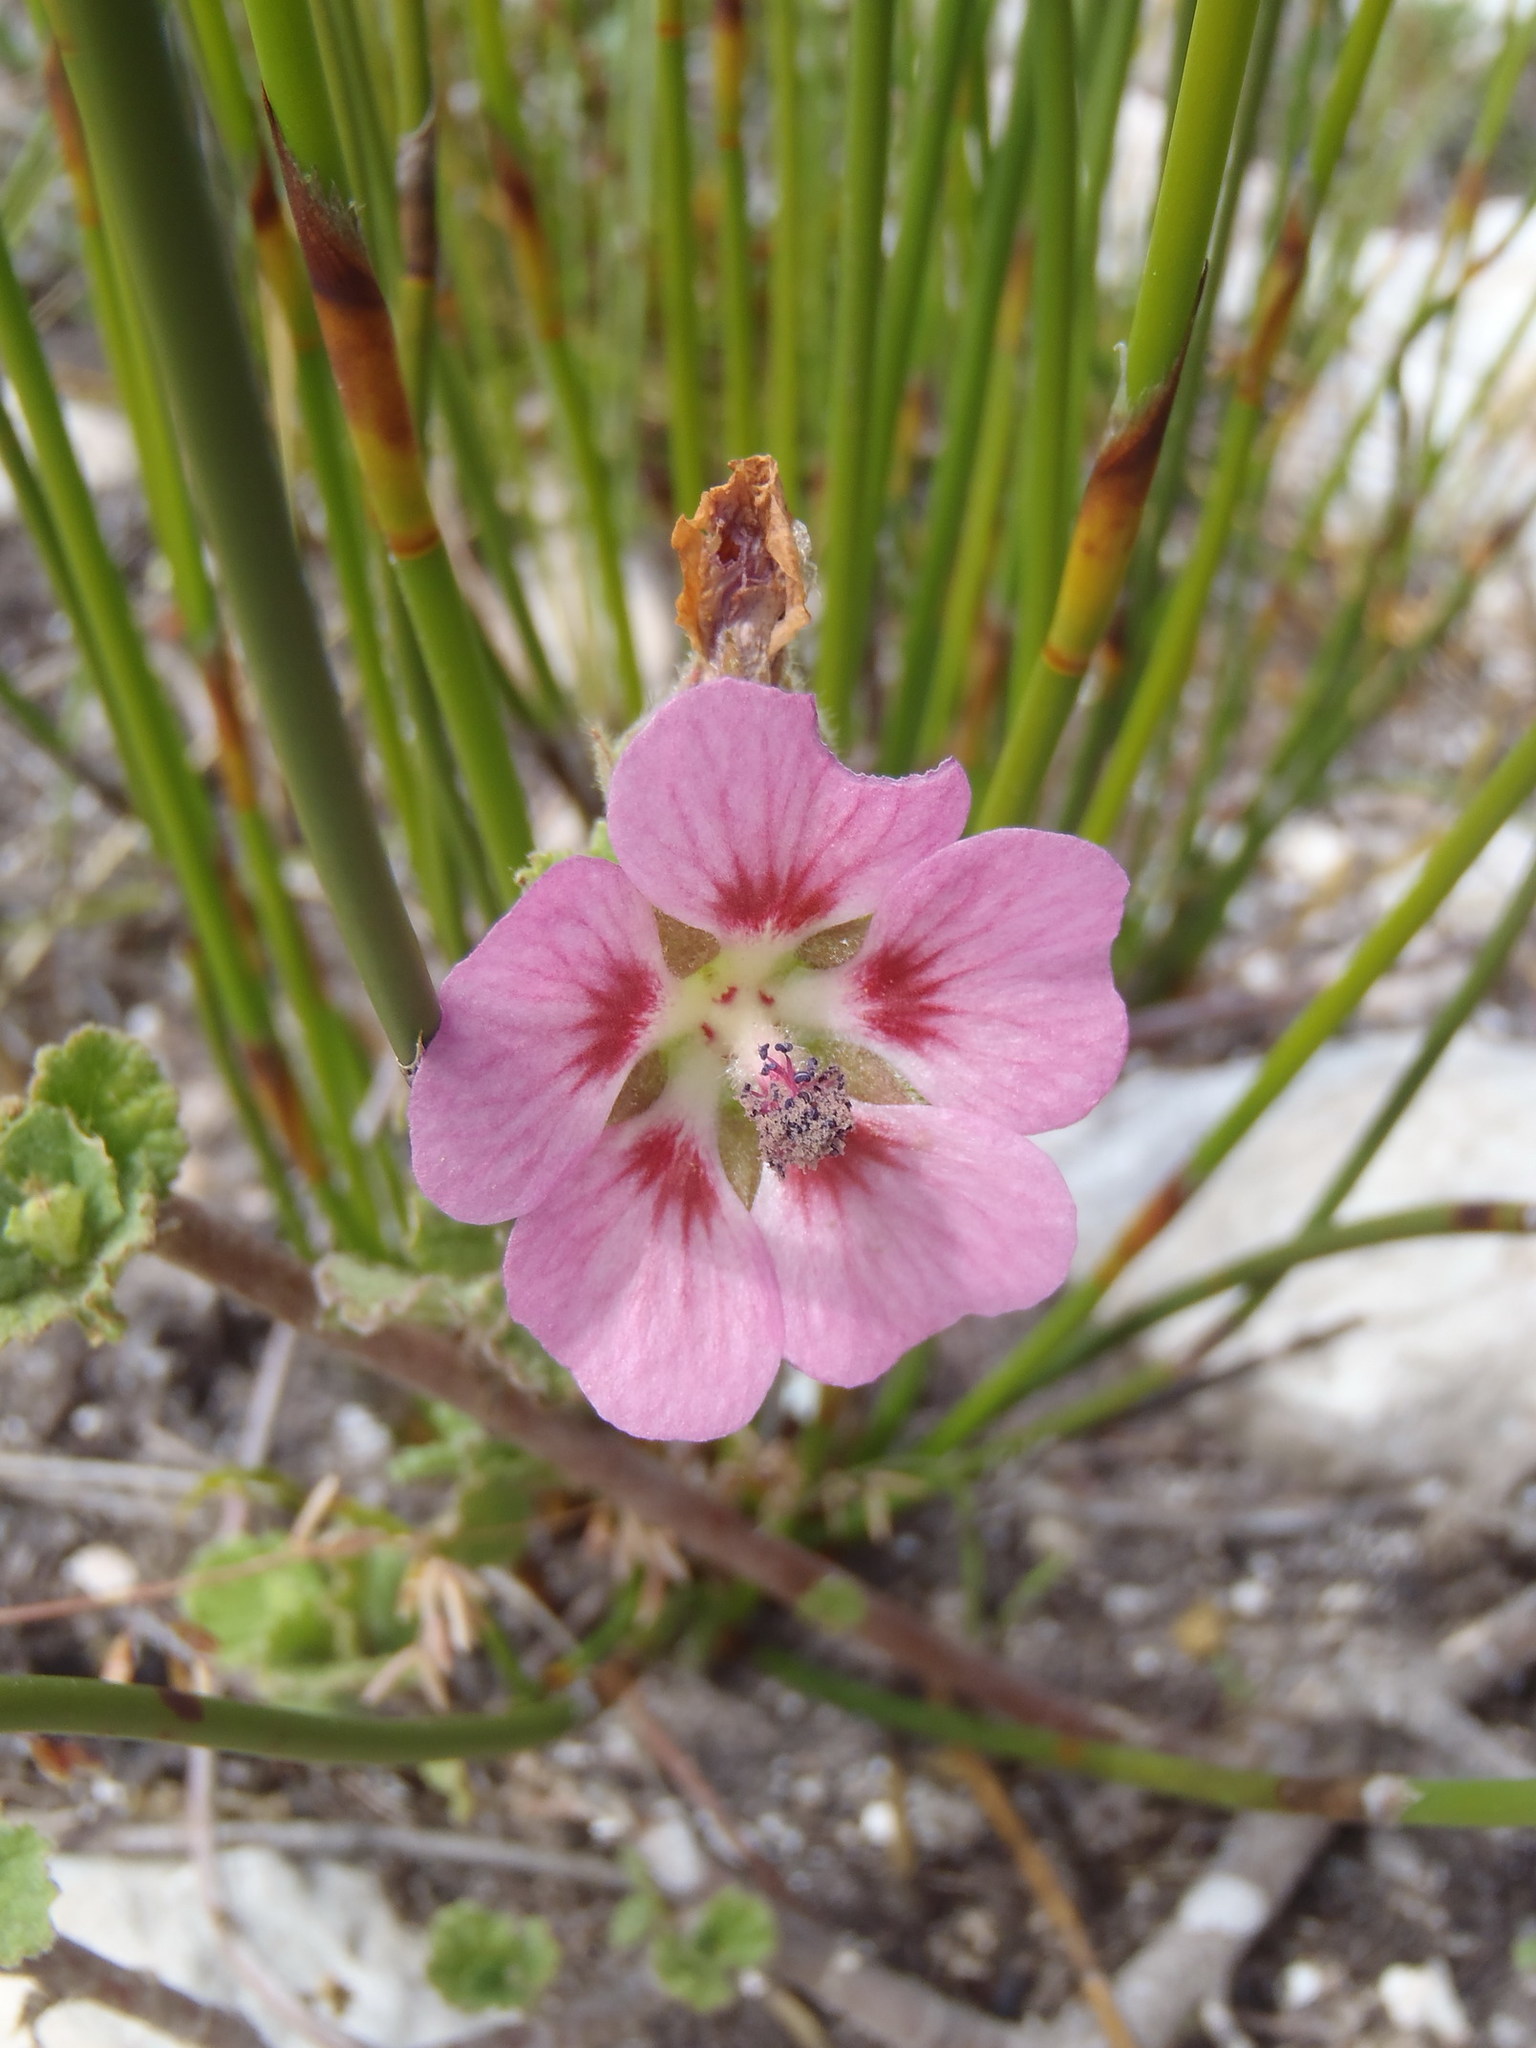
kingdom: Plantae
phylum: Tracheophyta
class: Magnoliopsida
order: Malvales
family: Malvaceae
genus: Anisodontea
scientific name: Anisodontea scabrosa
